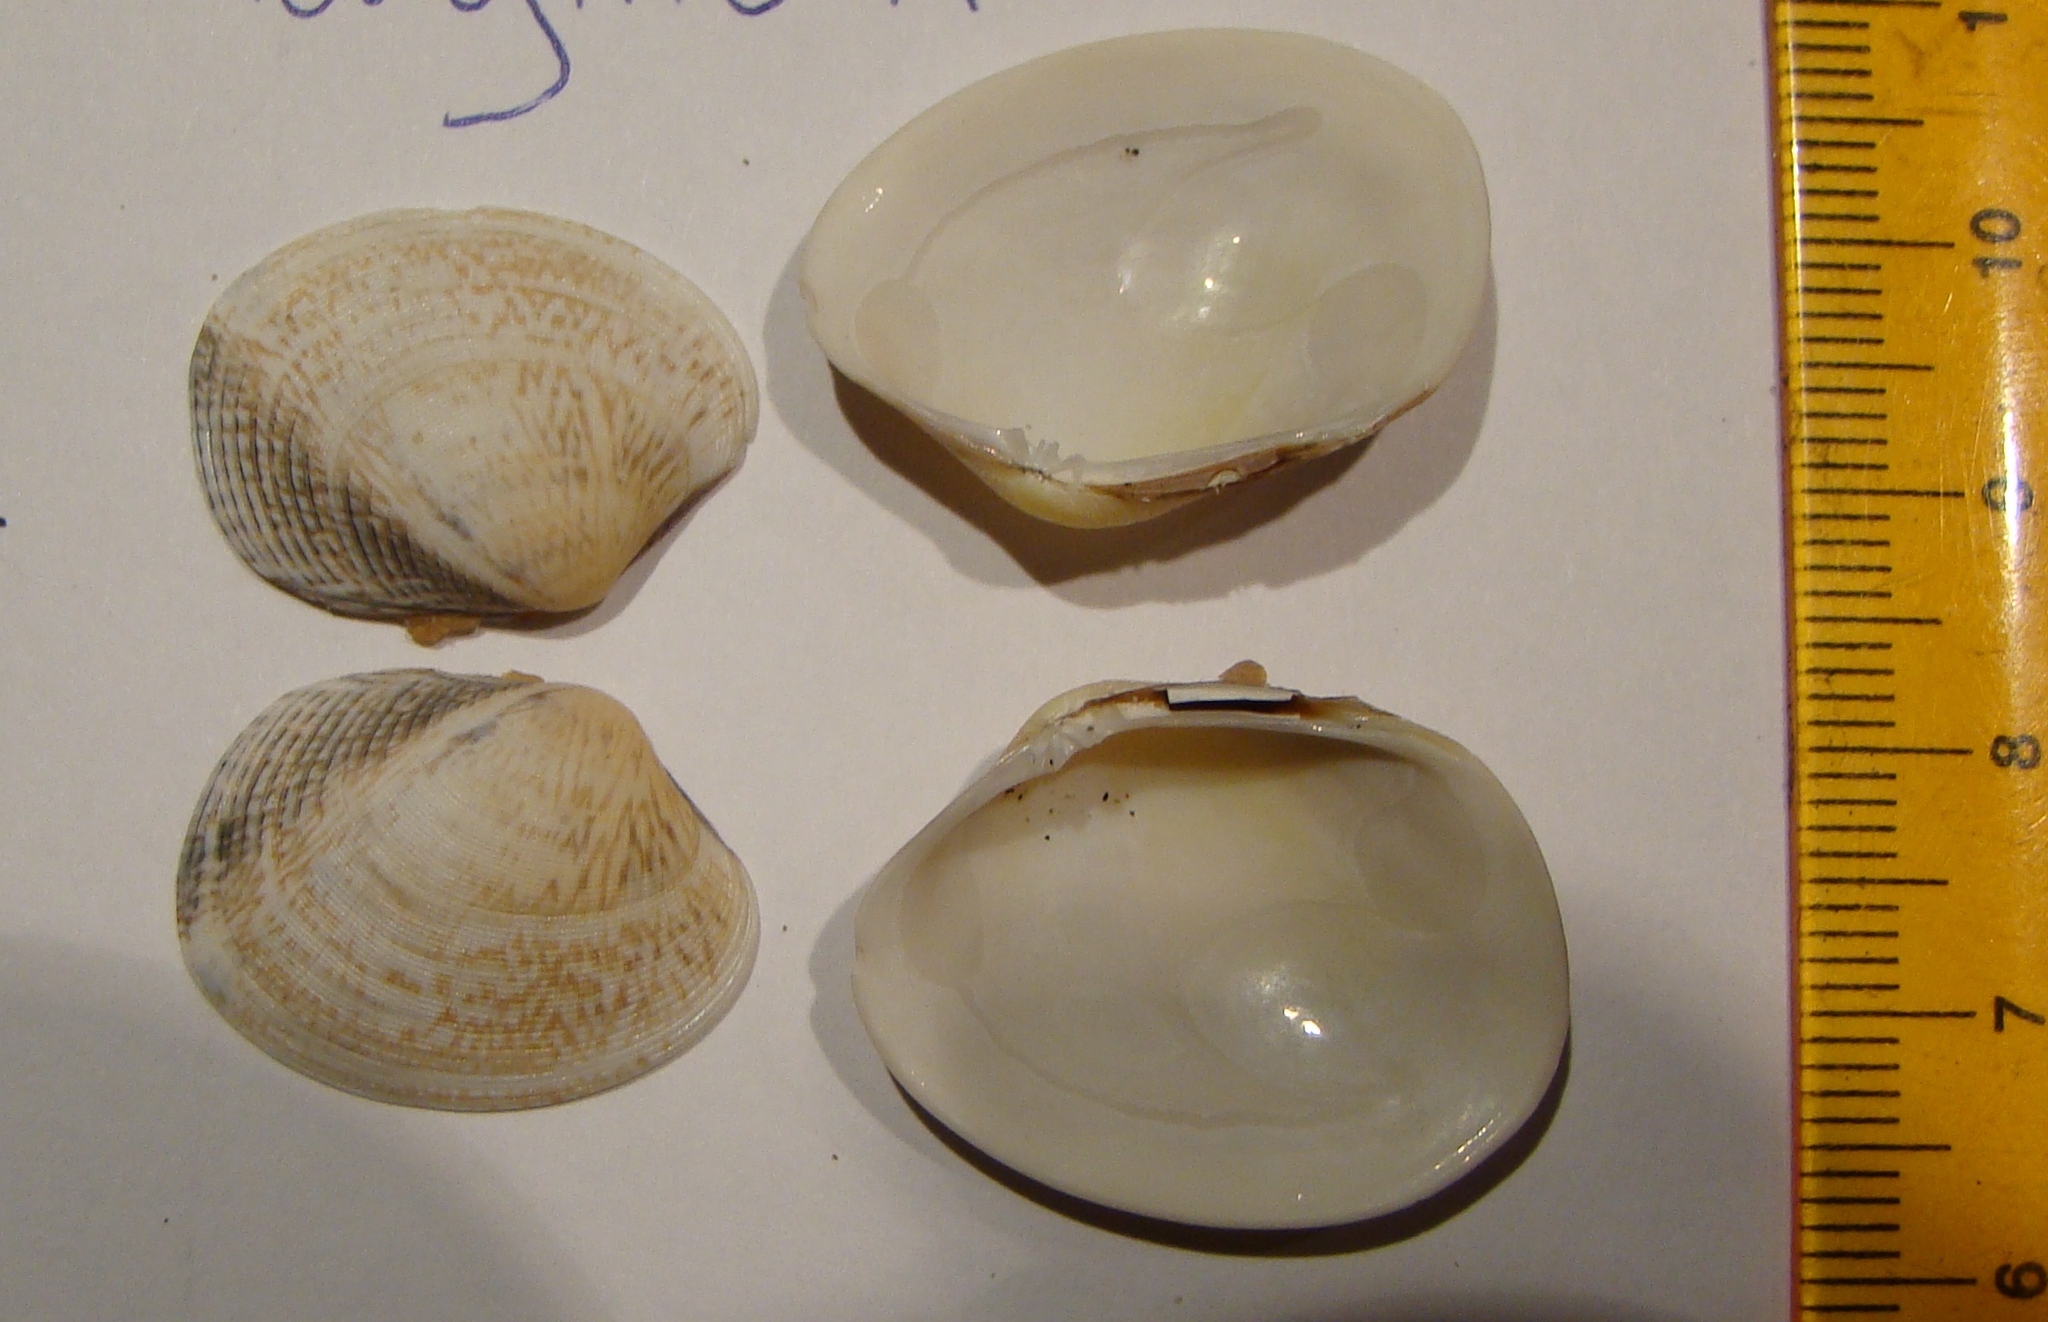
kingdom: Animalia
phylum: Mollusca
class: Bivalvia
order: Venerida
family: Veneridae
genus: Venerupis
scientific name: Venerupis largillierti
